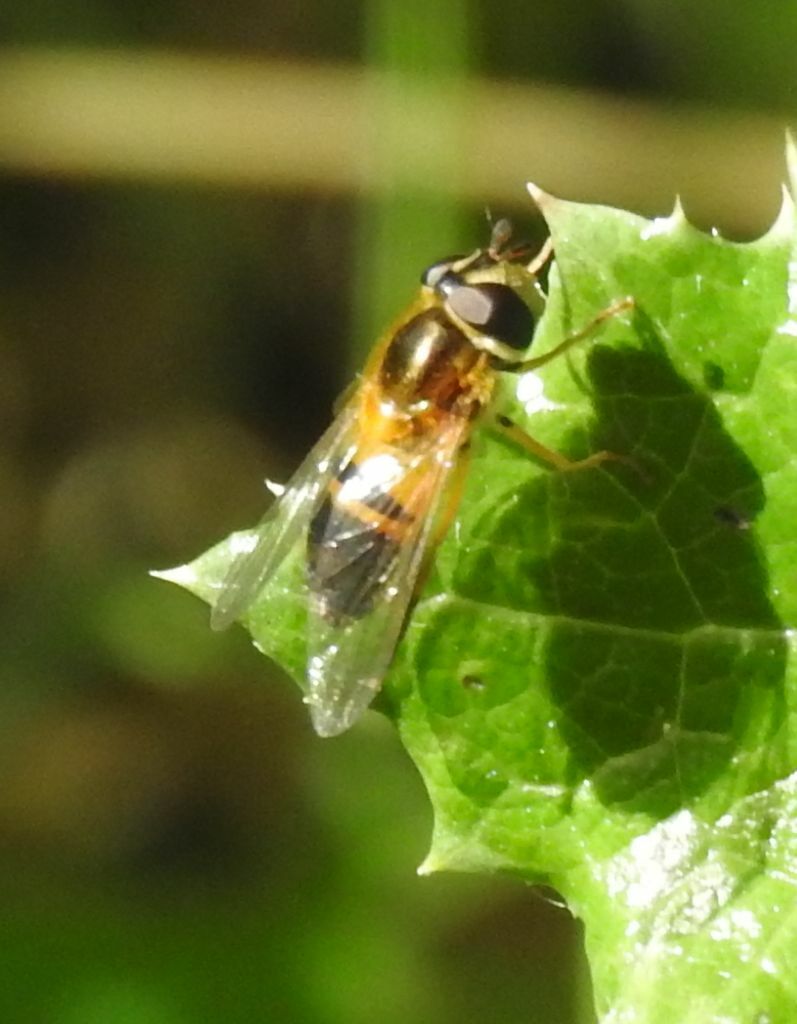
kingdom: Animalia
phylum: Arthropoda
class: Insecta
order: Diptera
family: Syrphidae
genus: Epistrophe
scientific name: Epistrophe eligans
